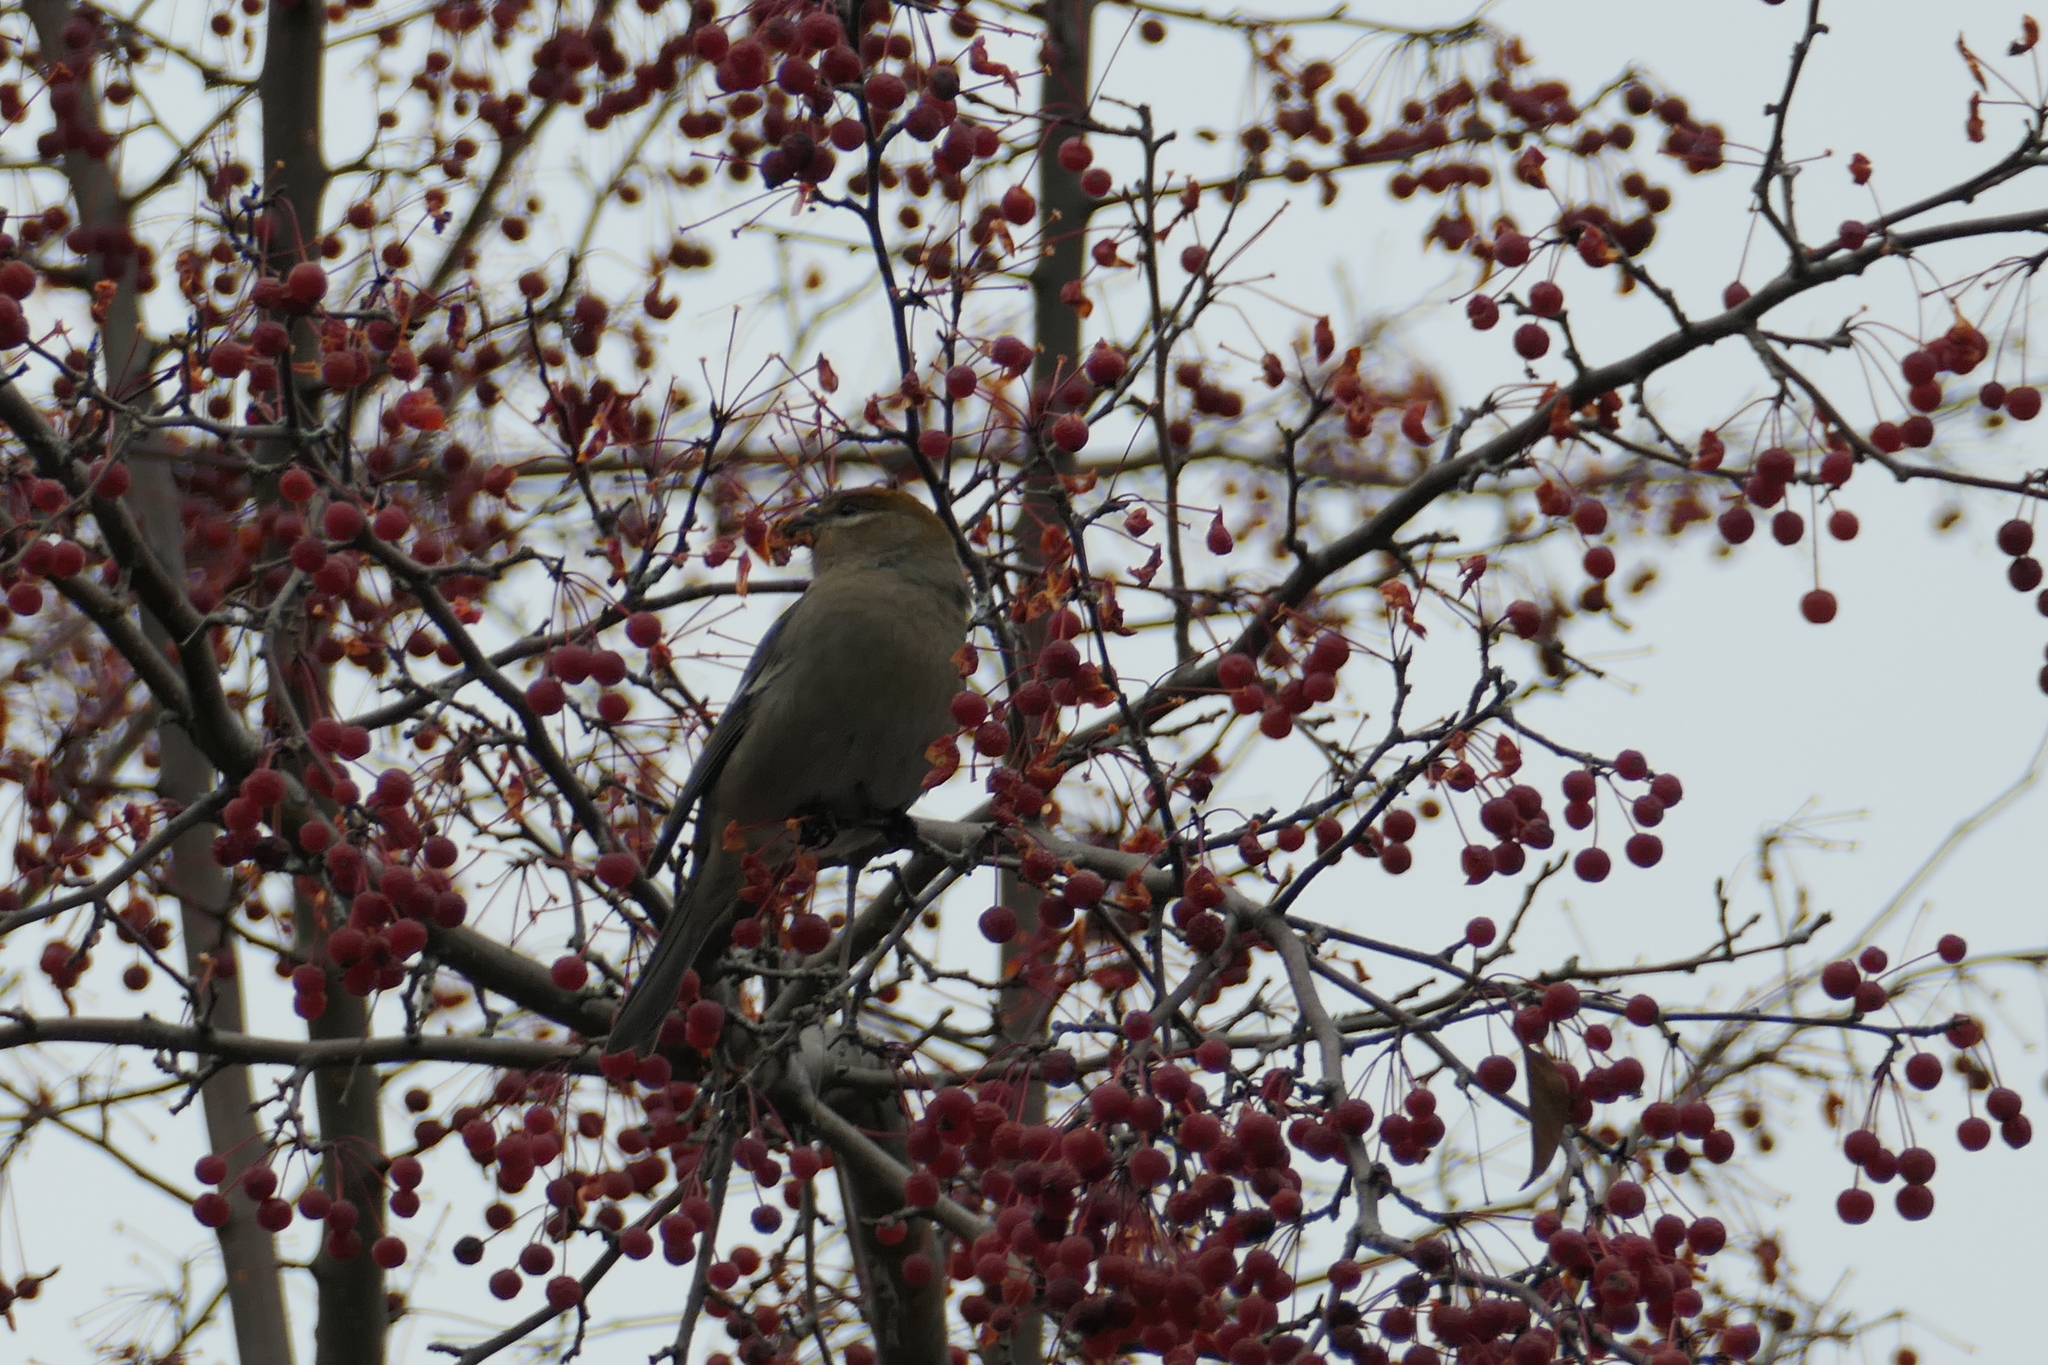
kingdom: Animalia
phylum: Chordata
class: Aves
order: Passeriformes
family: Fringillidae
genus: Pinicola
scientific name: Pinicola enucleator
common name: Pine grosbeak
